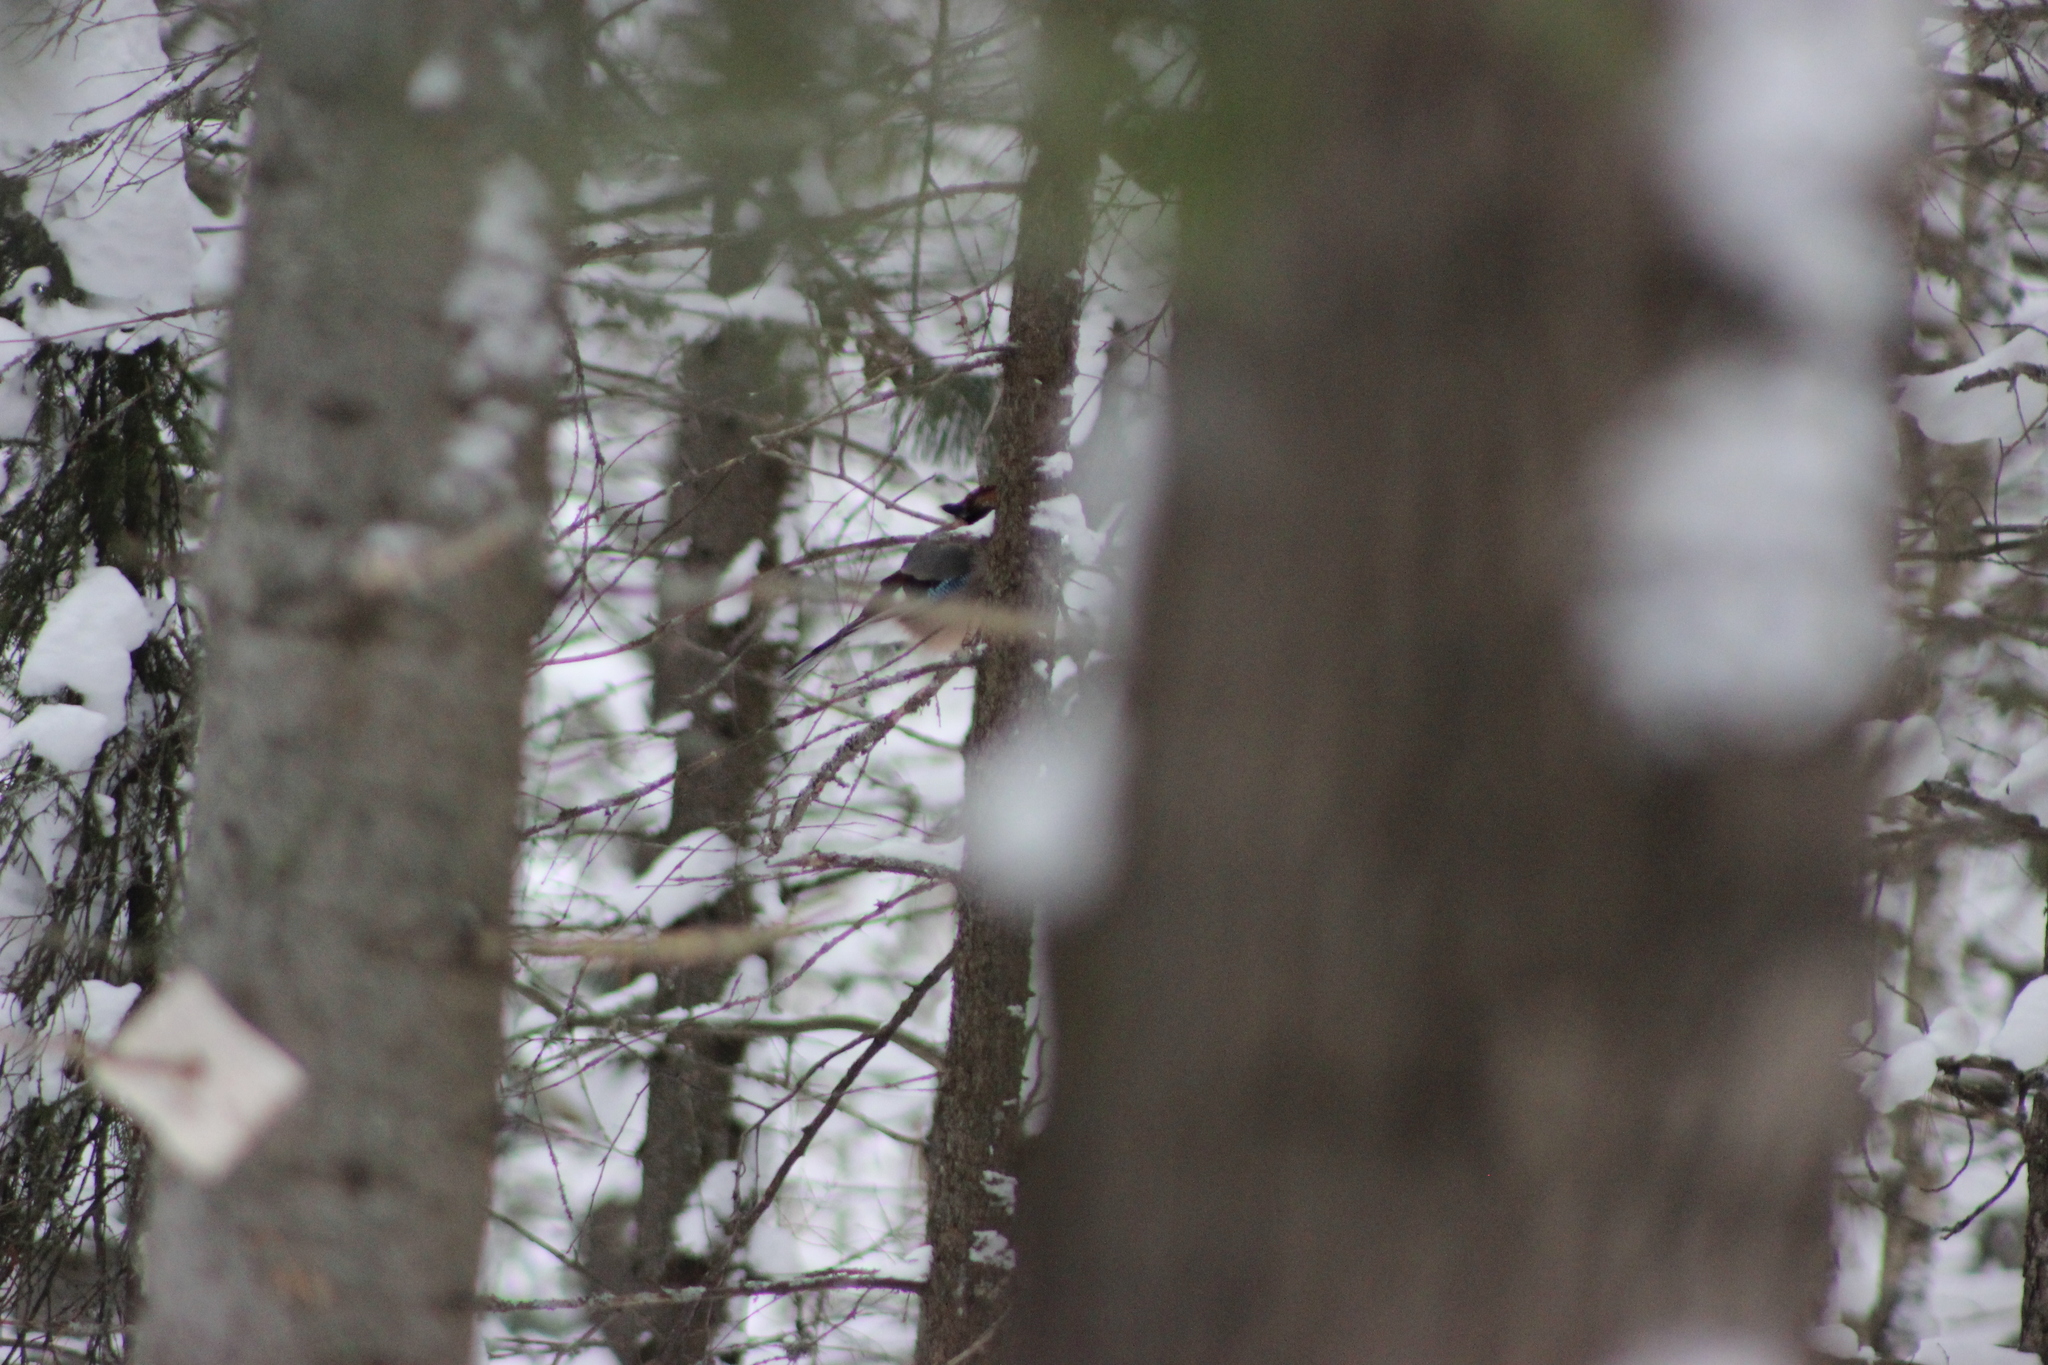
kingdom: Animalia
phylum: Chordata
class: Aves
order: Passeriformes
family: Corvidae
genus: Garrulus
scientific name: Garrulus glandarius
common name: Eurasian jay
